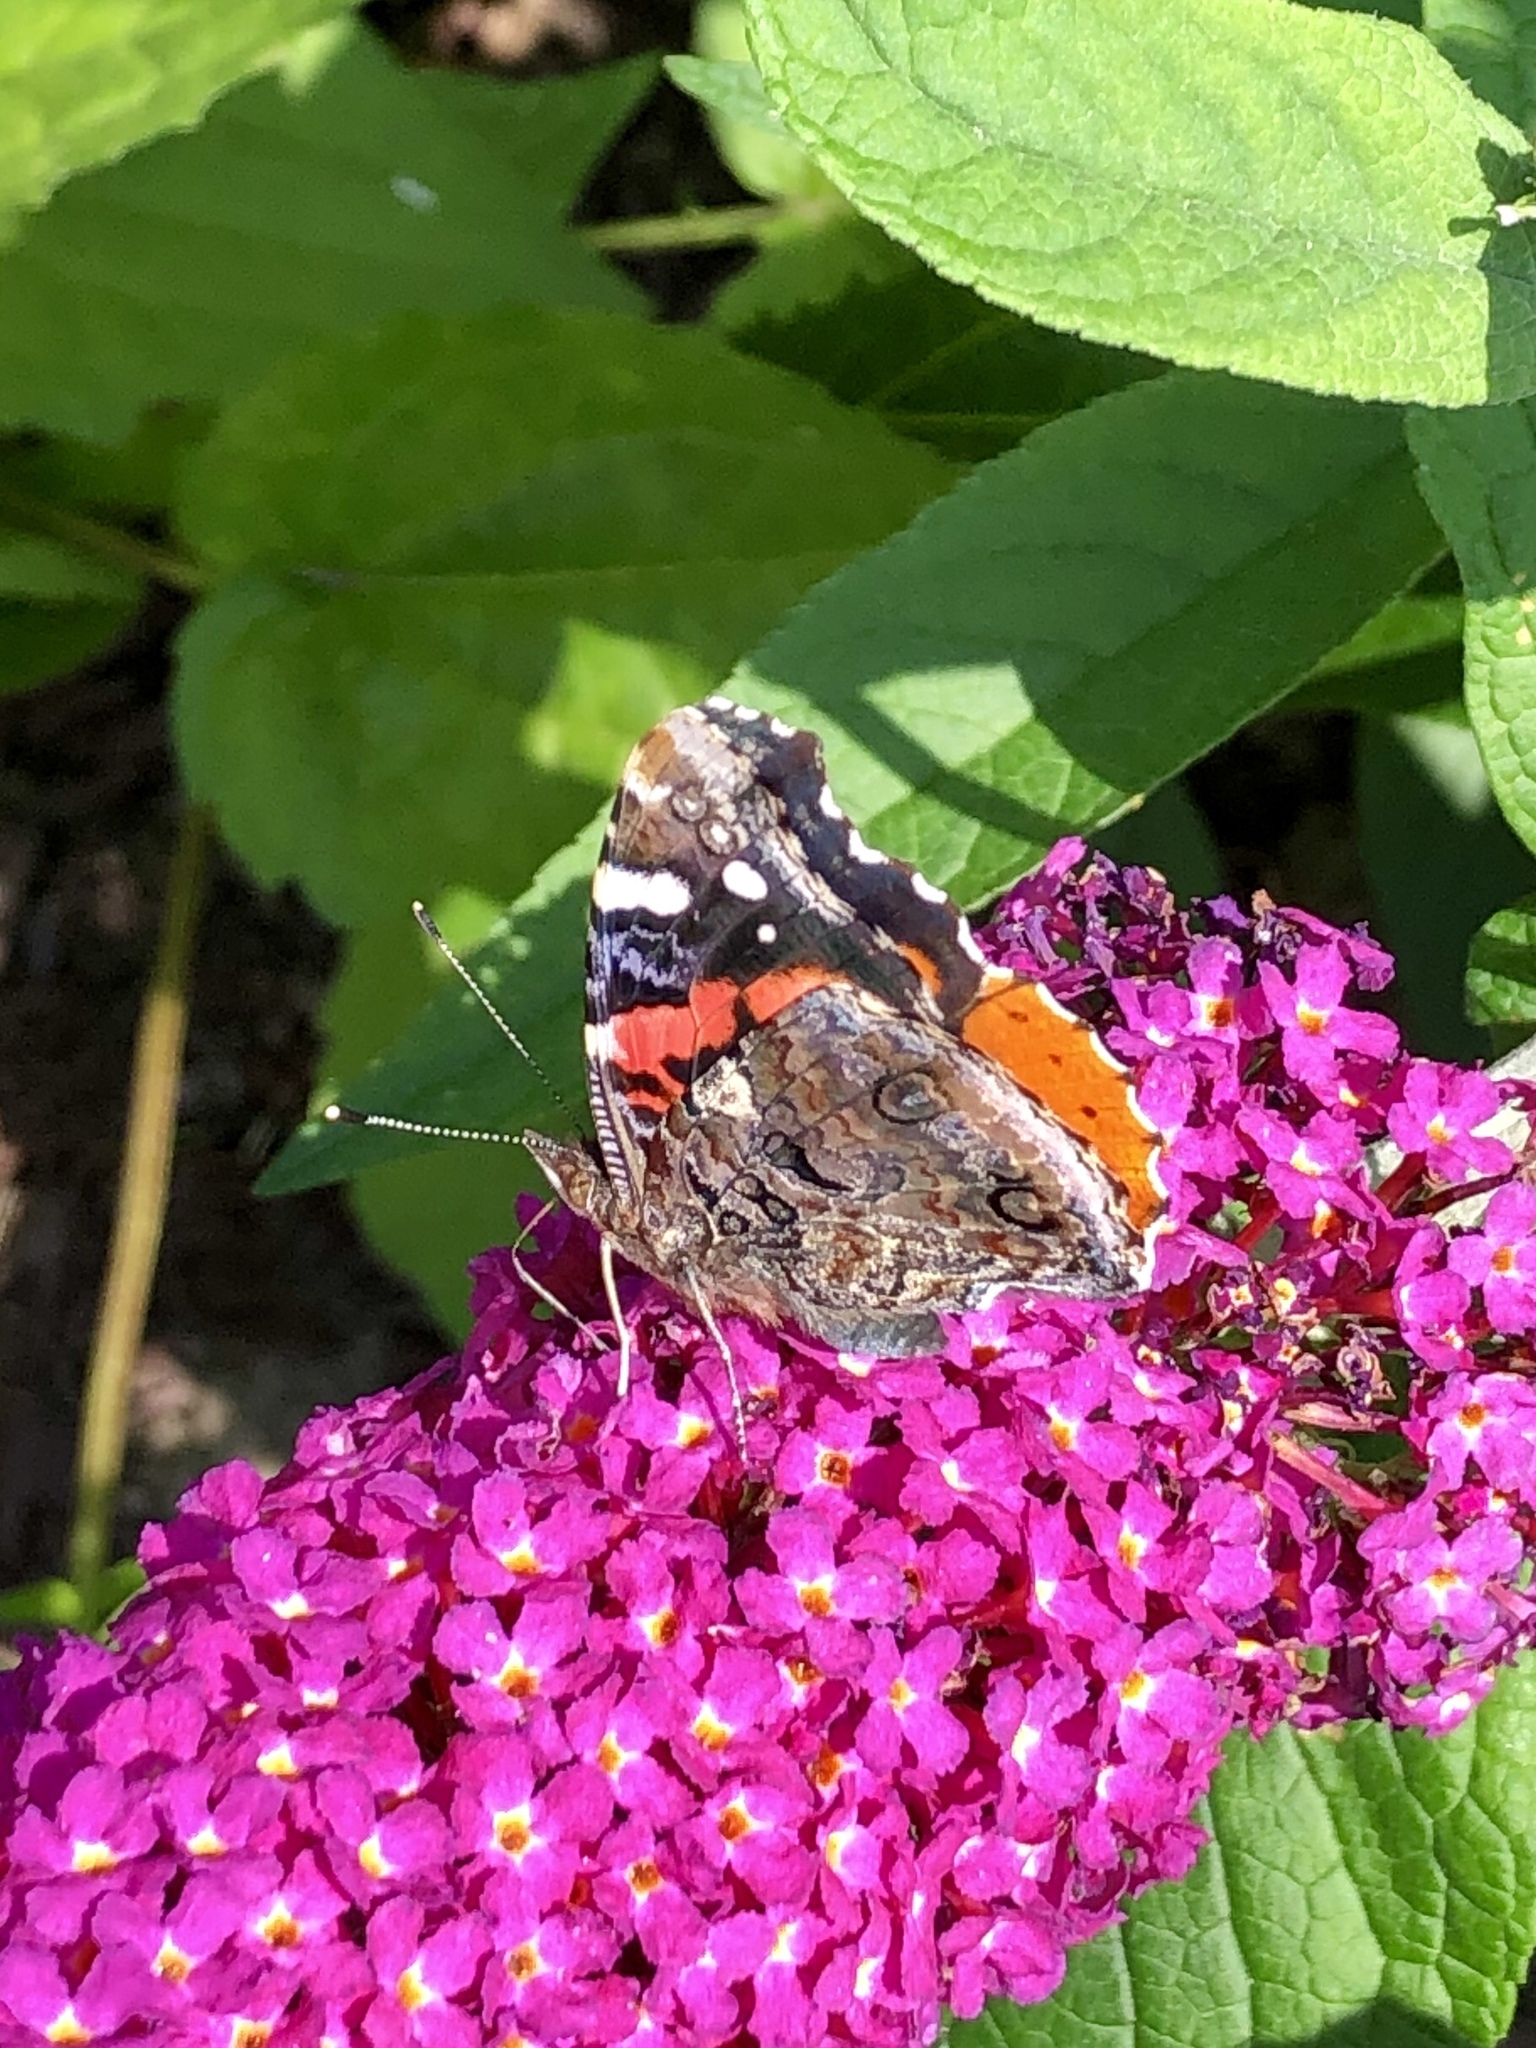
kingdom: Animalia
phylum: Arthropoda
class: Insecta
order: Lepidoptera
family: Nymphalidae
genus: Vanessa
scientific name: Vanessa atalanta
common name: Red admiral
